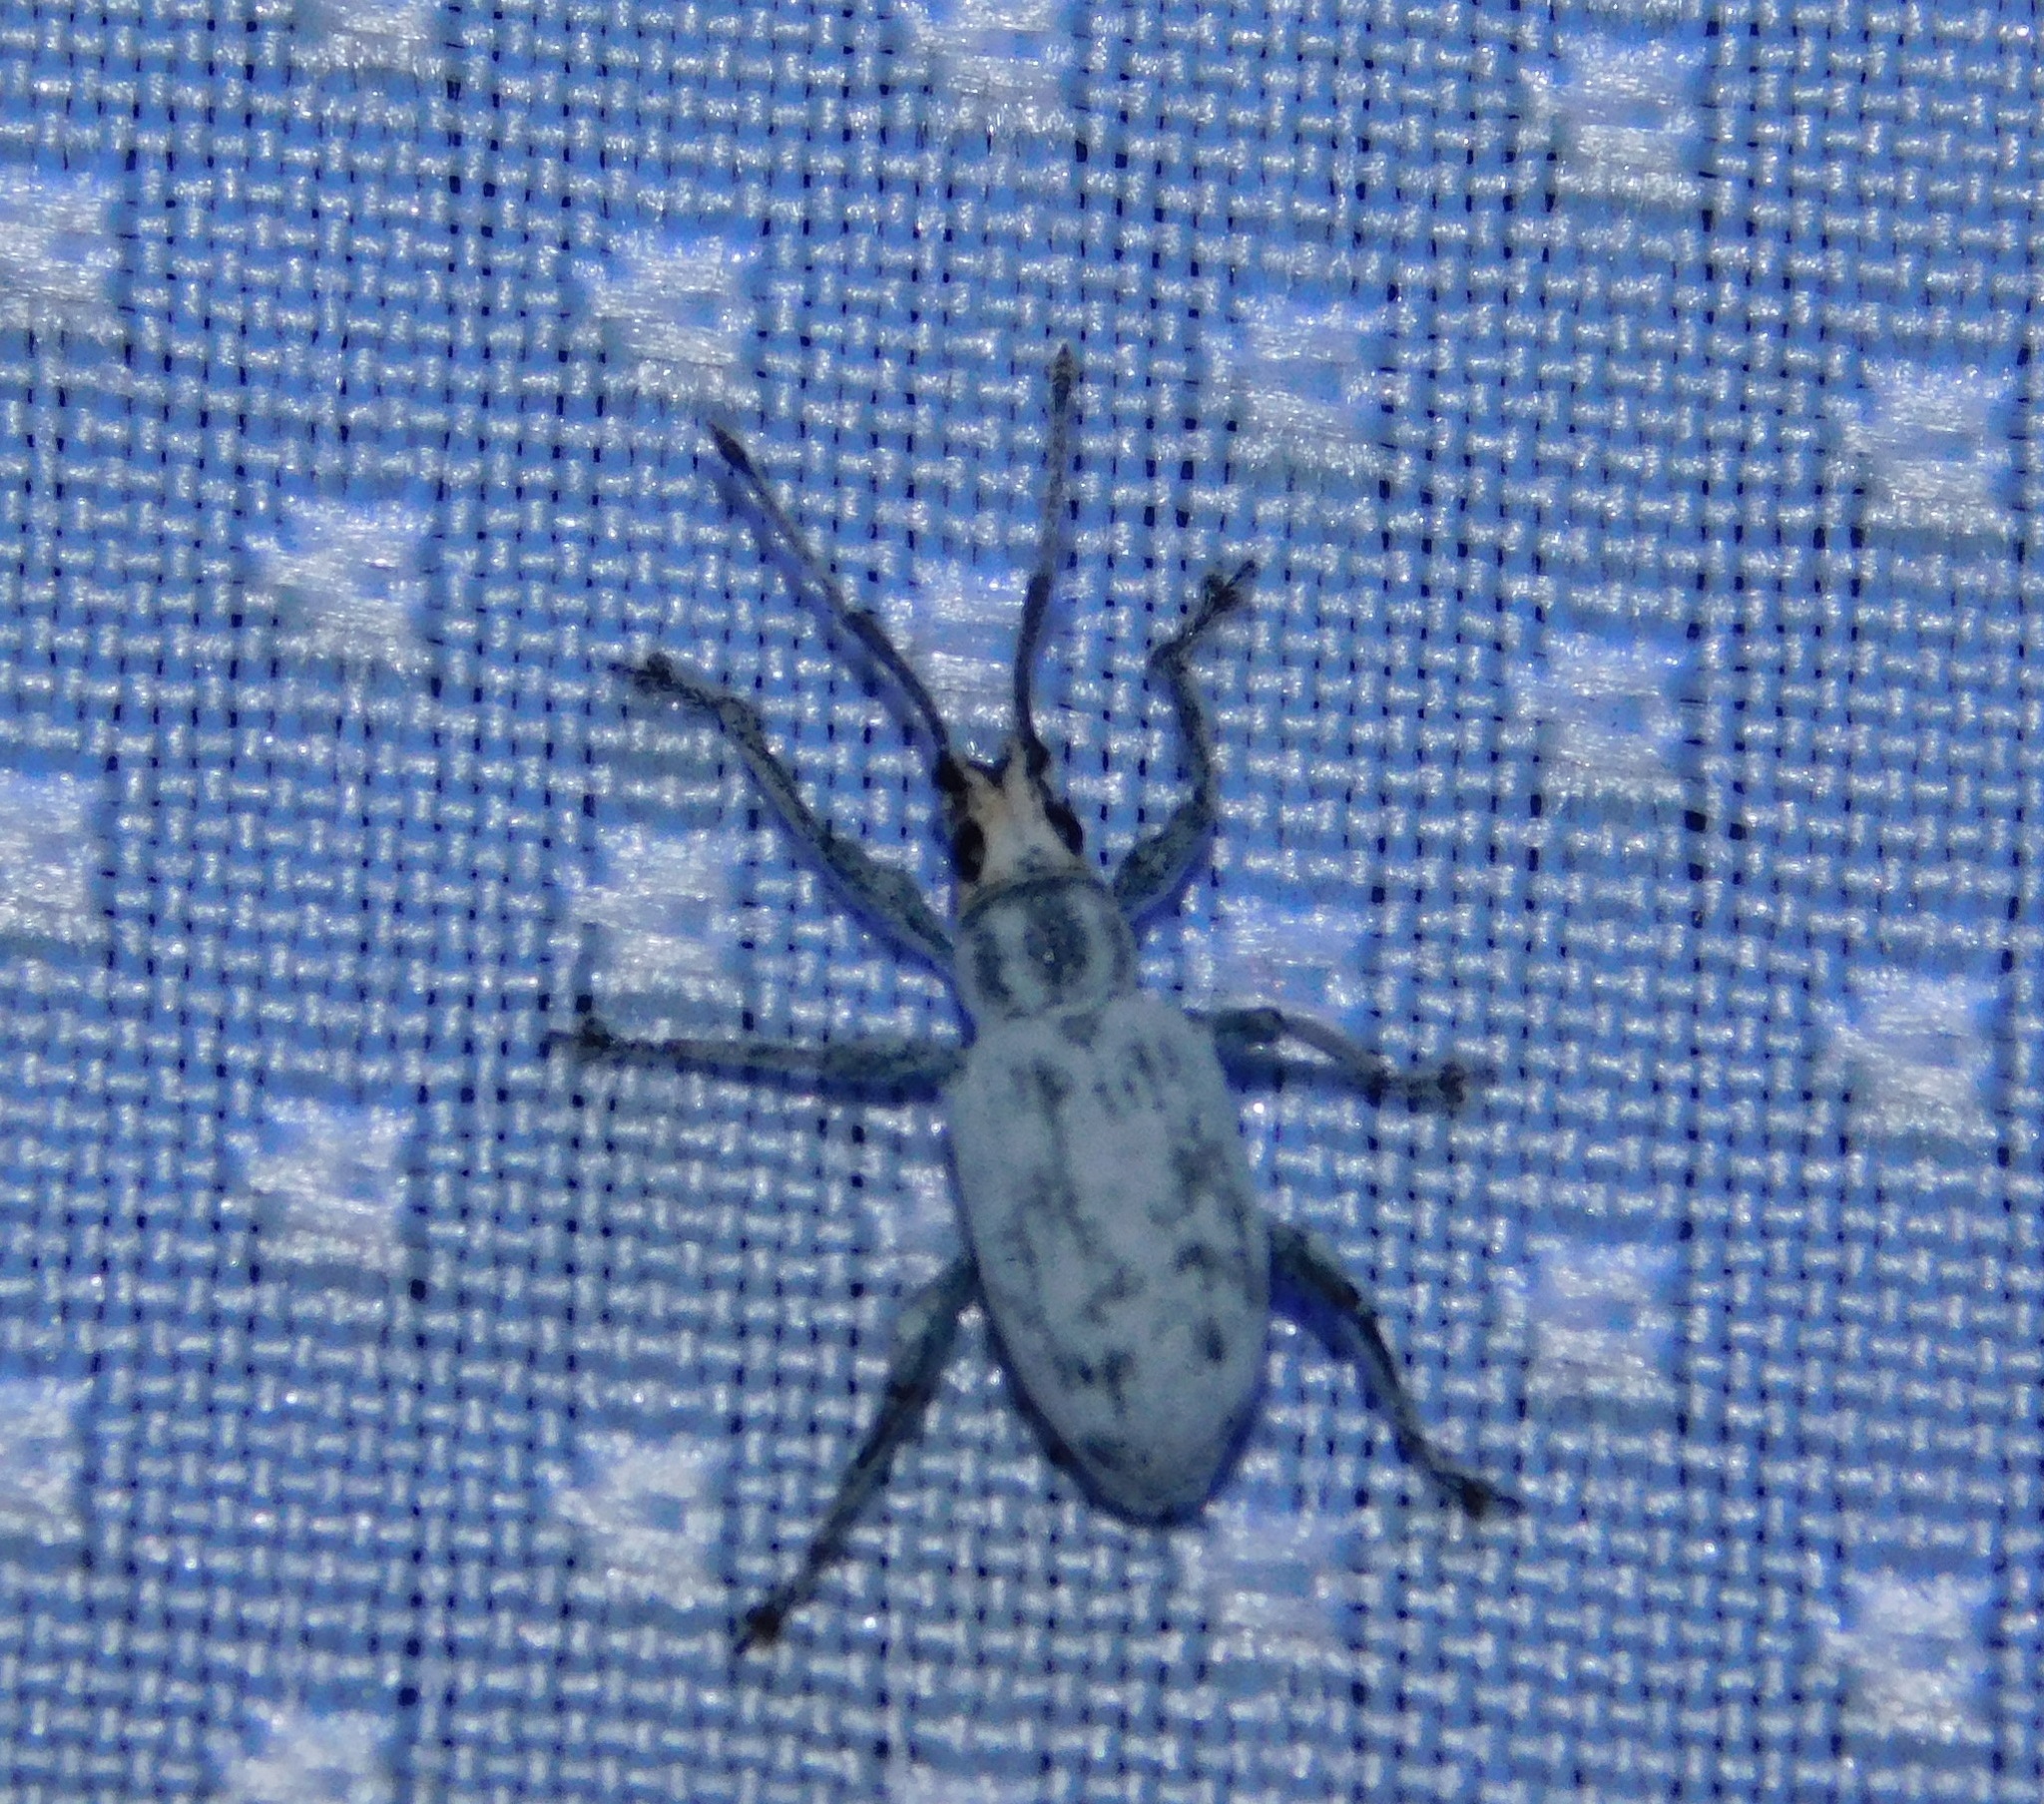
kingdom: Animalia
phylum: Arthropoda
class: Insecta
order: Coleoptera
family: Curculionidae
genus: Myllocerus
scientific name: Myllocerus undecimpustulatus
